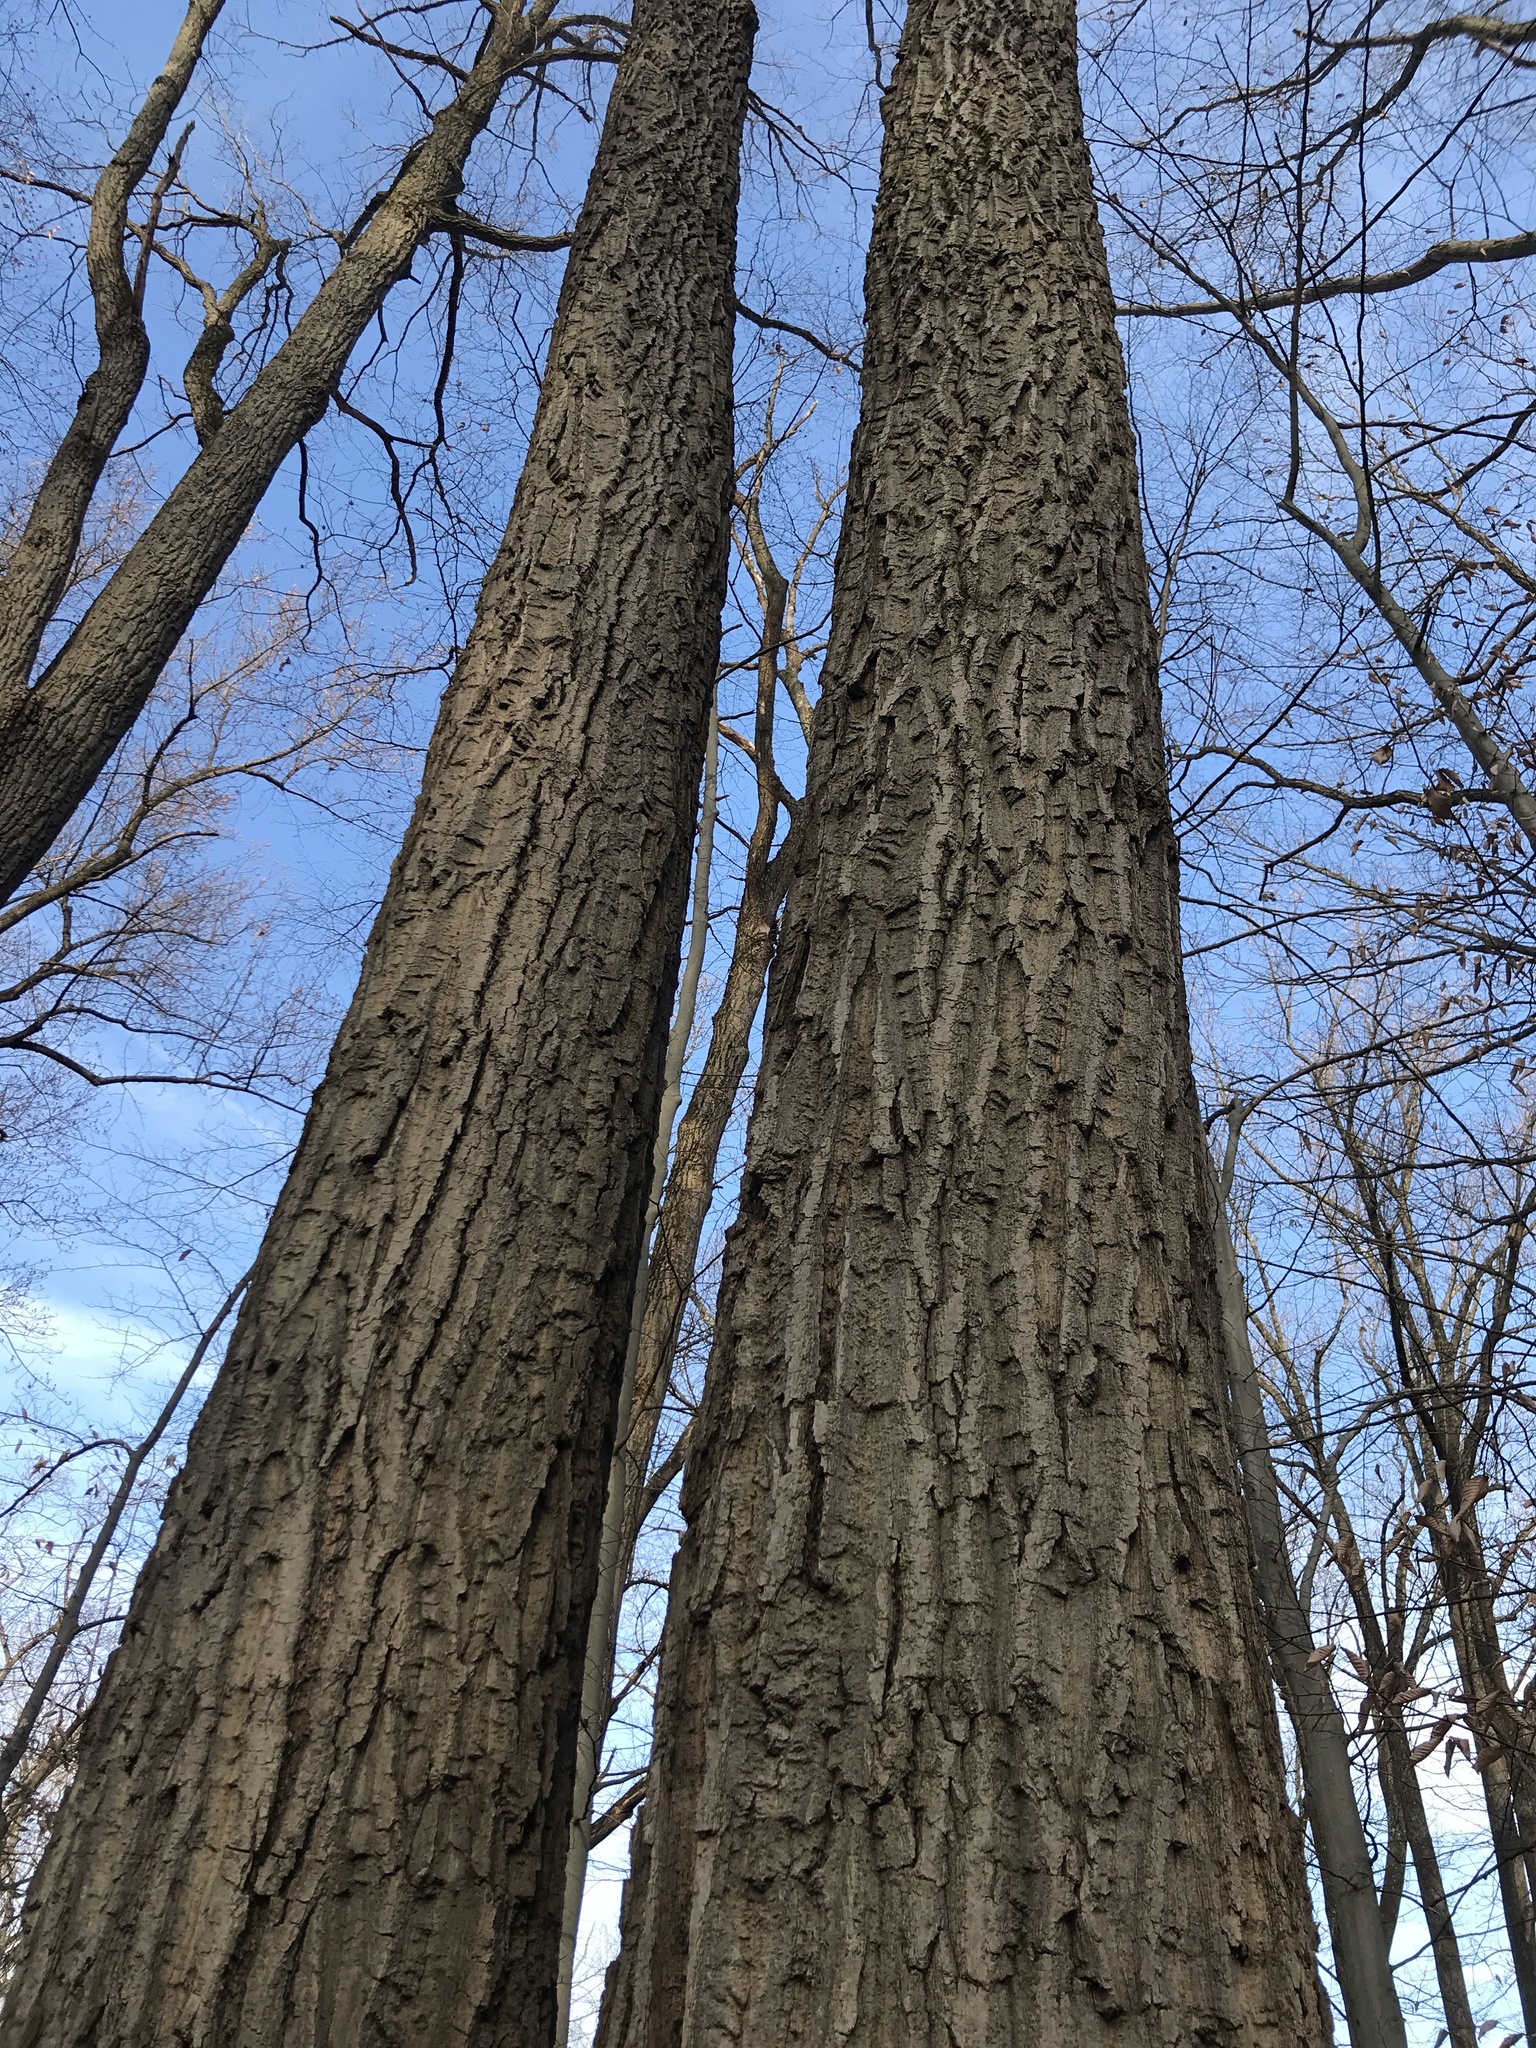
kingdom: Plantae
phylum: Tracheophyta
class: Magnoliopsida
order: Fagales
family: Fagaceae
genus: Quercus
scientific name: Quercus montana
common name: Chestnut oak
